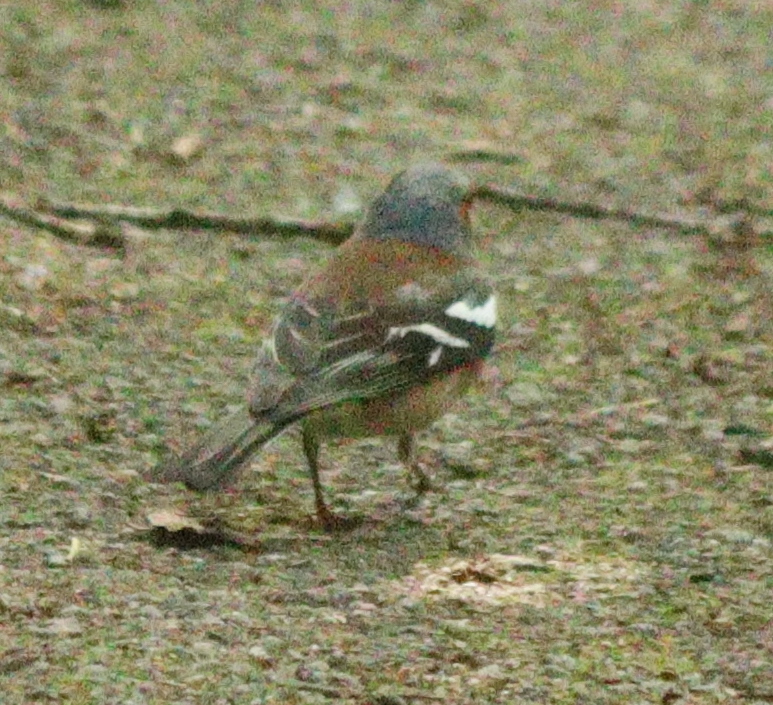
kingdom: Animalia
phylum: Chordata
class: Aves
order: Passeriformes
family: Fringillidae
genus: Fringilla
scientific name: Fringilla coelebs
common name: Common chaffinch
